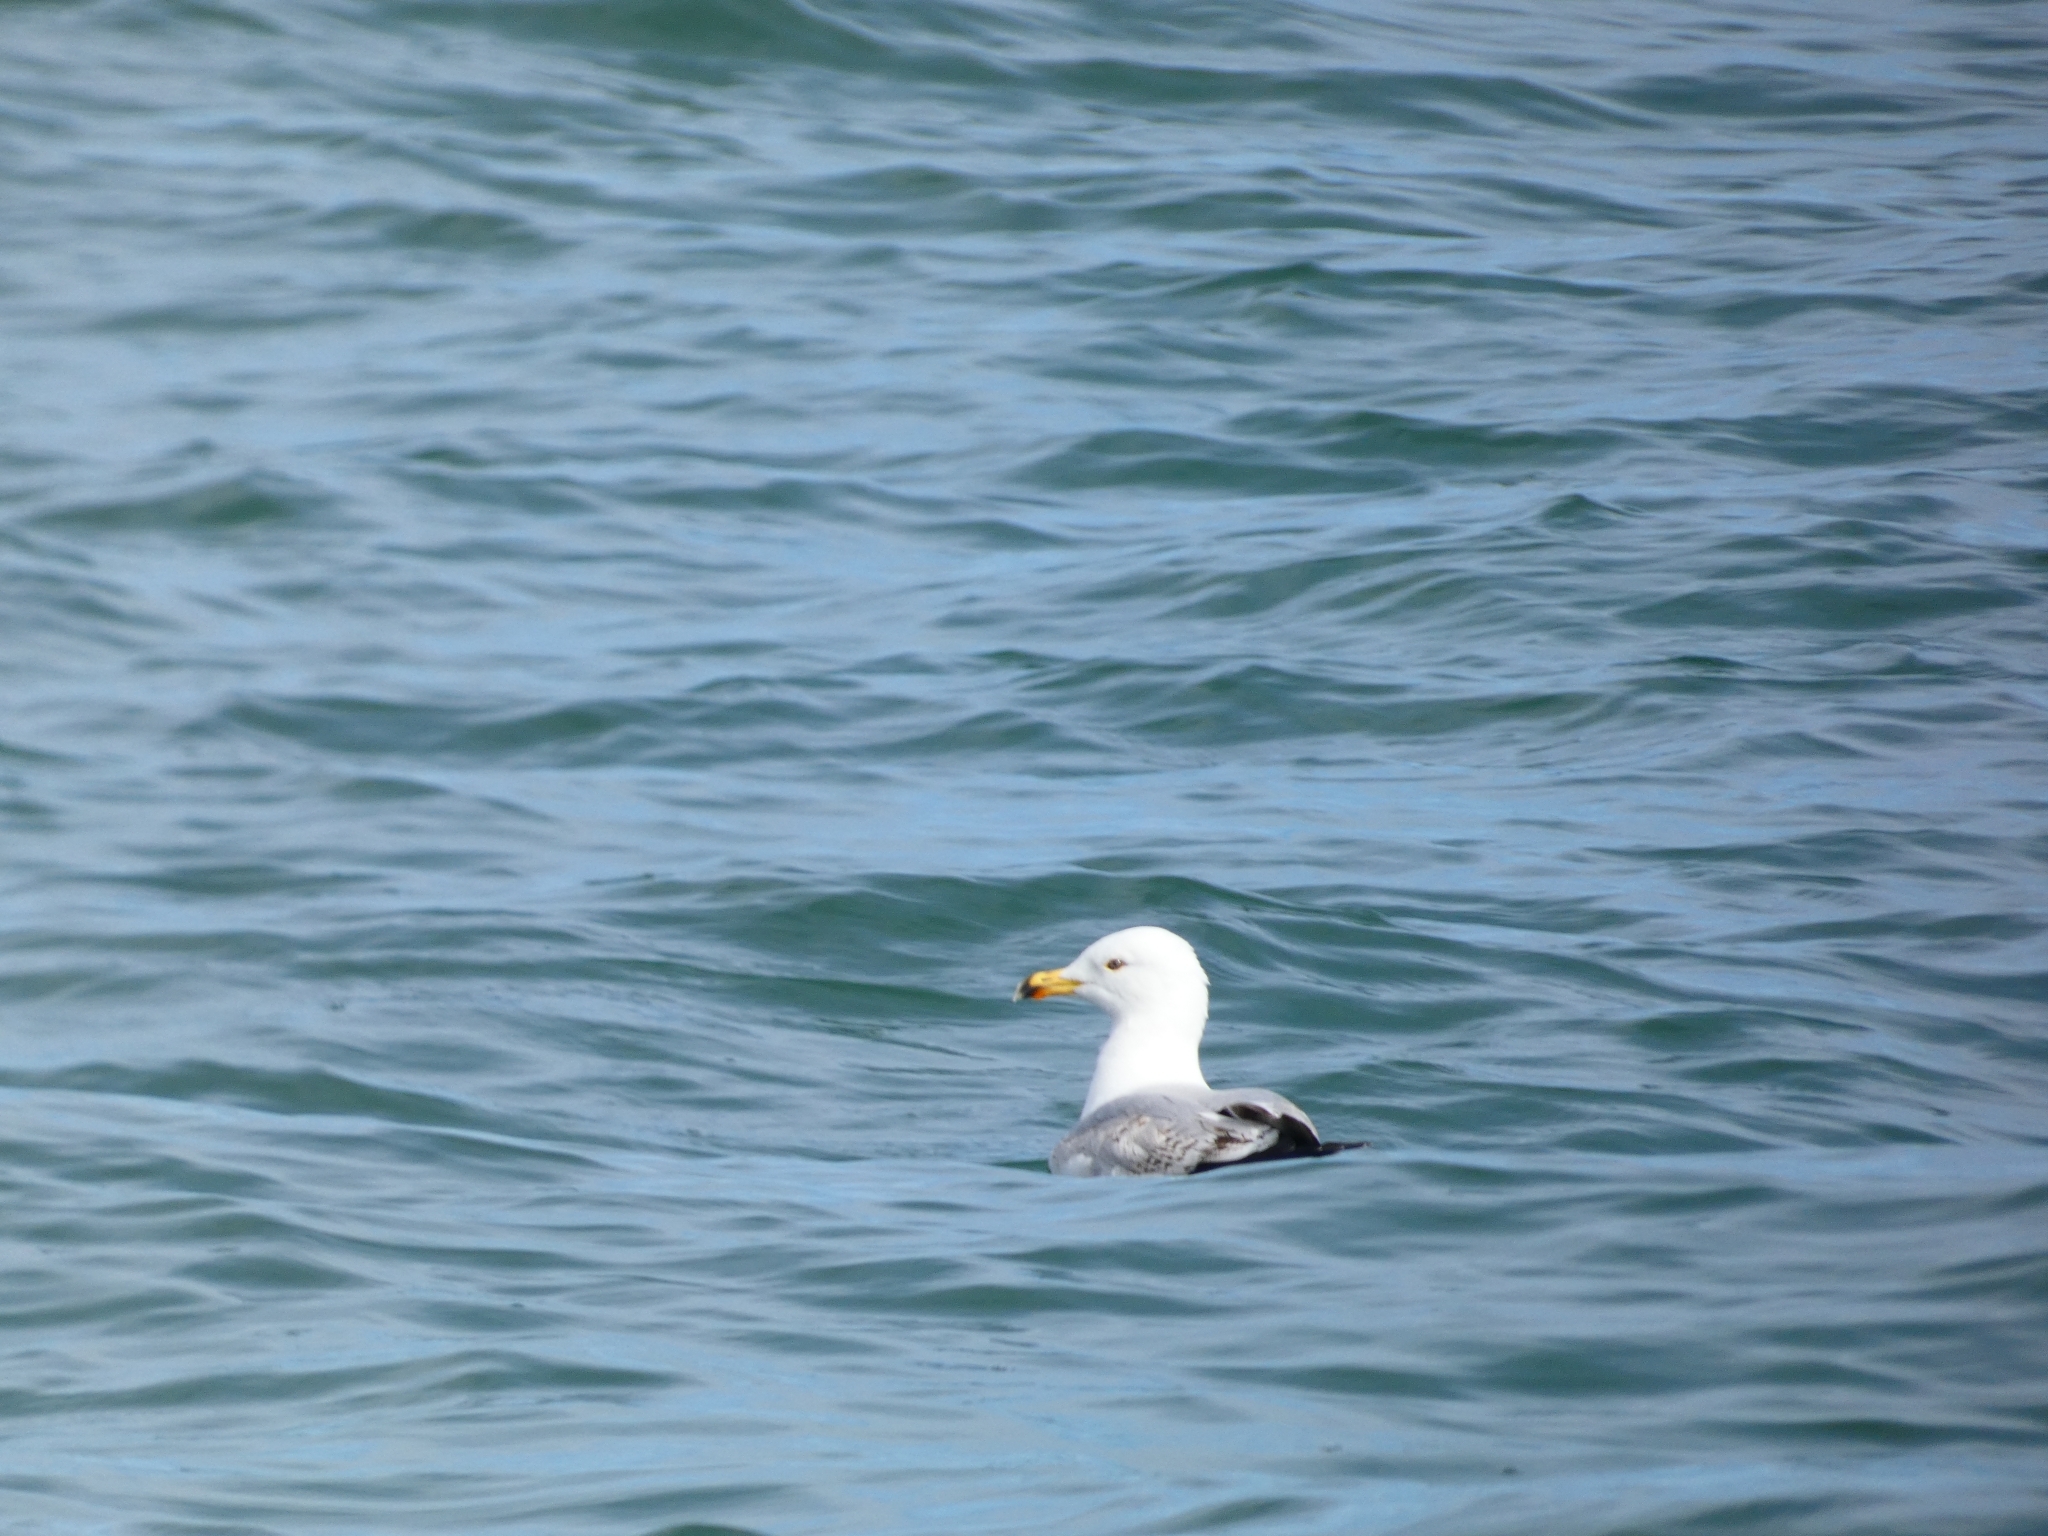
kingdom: Animalia
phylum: Chordata
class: Aves
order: Charadriiformes
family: Laridae
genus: Larus
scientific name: Larus argentatus
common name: Herring gull
